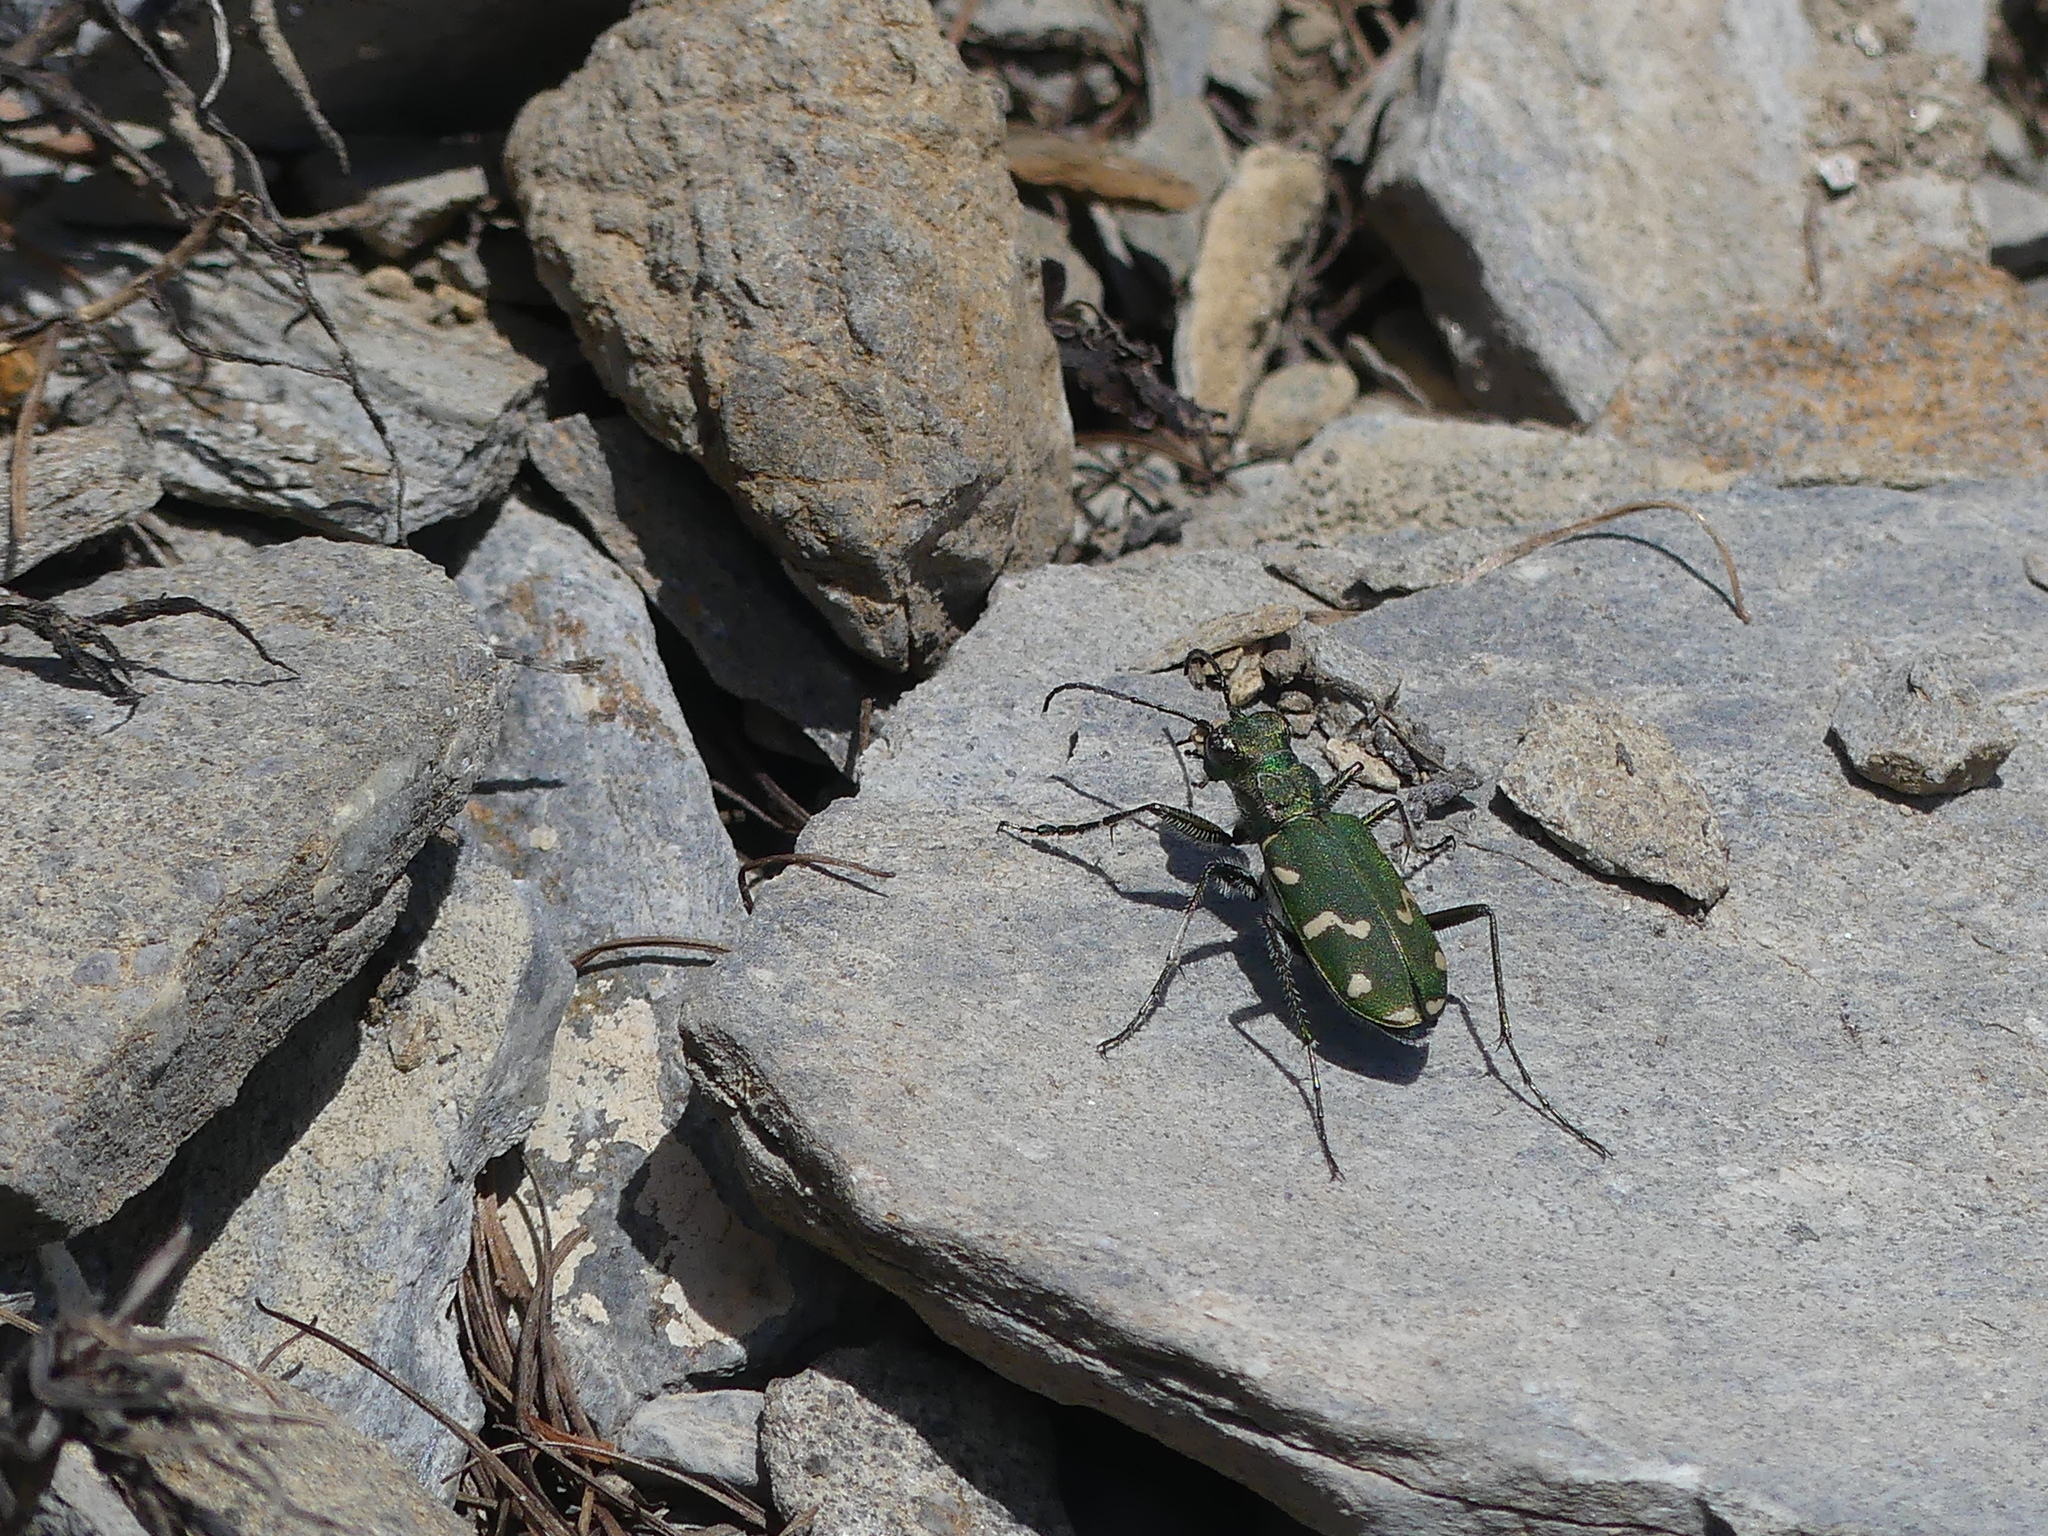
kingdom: Animalia
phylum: Arthropoda
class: Insecta
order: Coleoptera
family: Carabidae
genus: Cicindela
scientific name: Cicindela gallica
